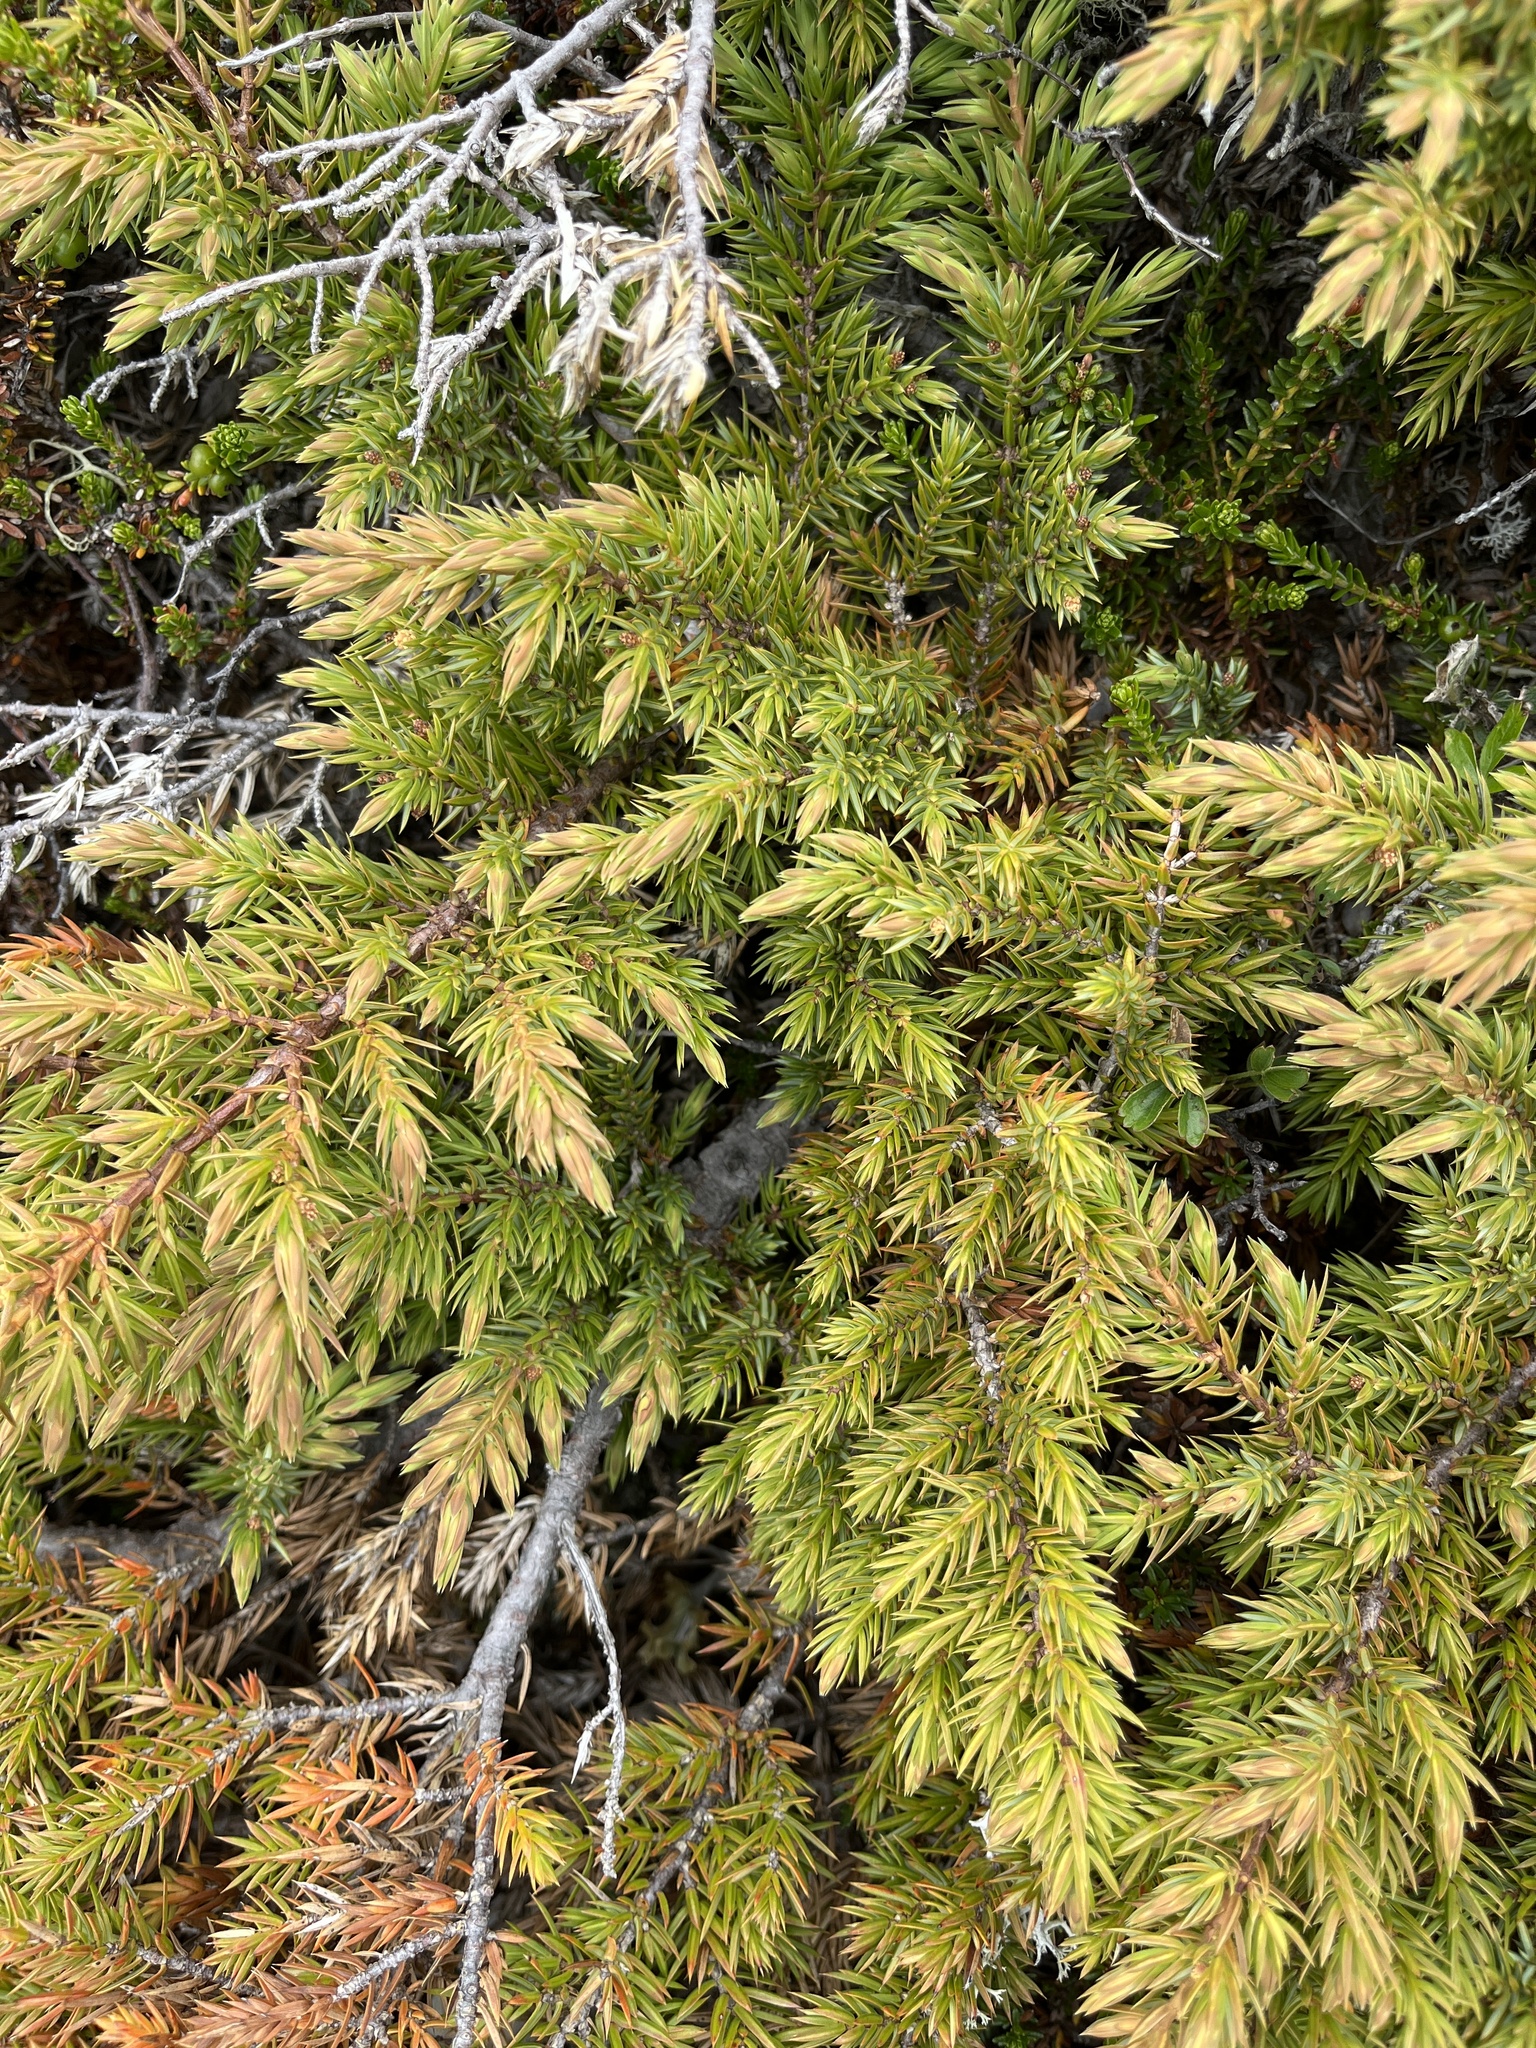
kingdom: Plantae
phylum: Tracheophyta
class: Pinopsida
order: Pinales
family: Cupressaceae
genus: Juniperus
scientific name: Juniperus communis
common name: Common juniper
